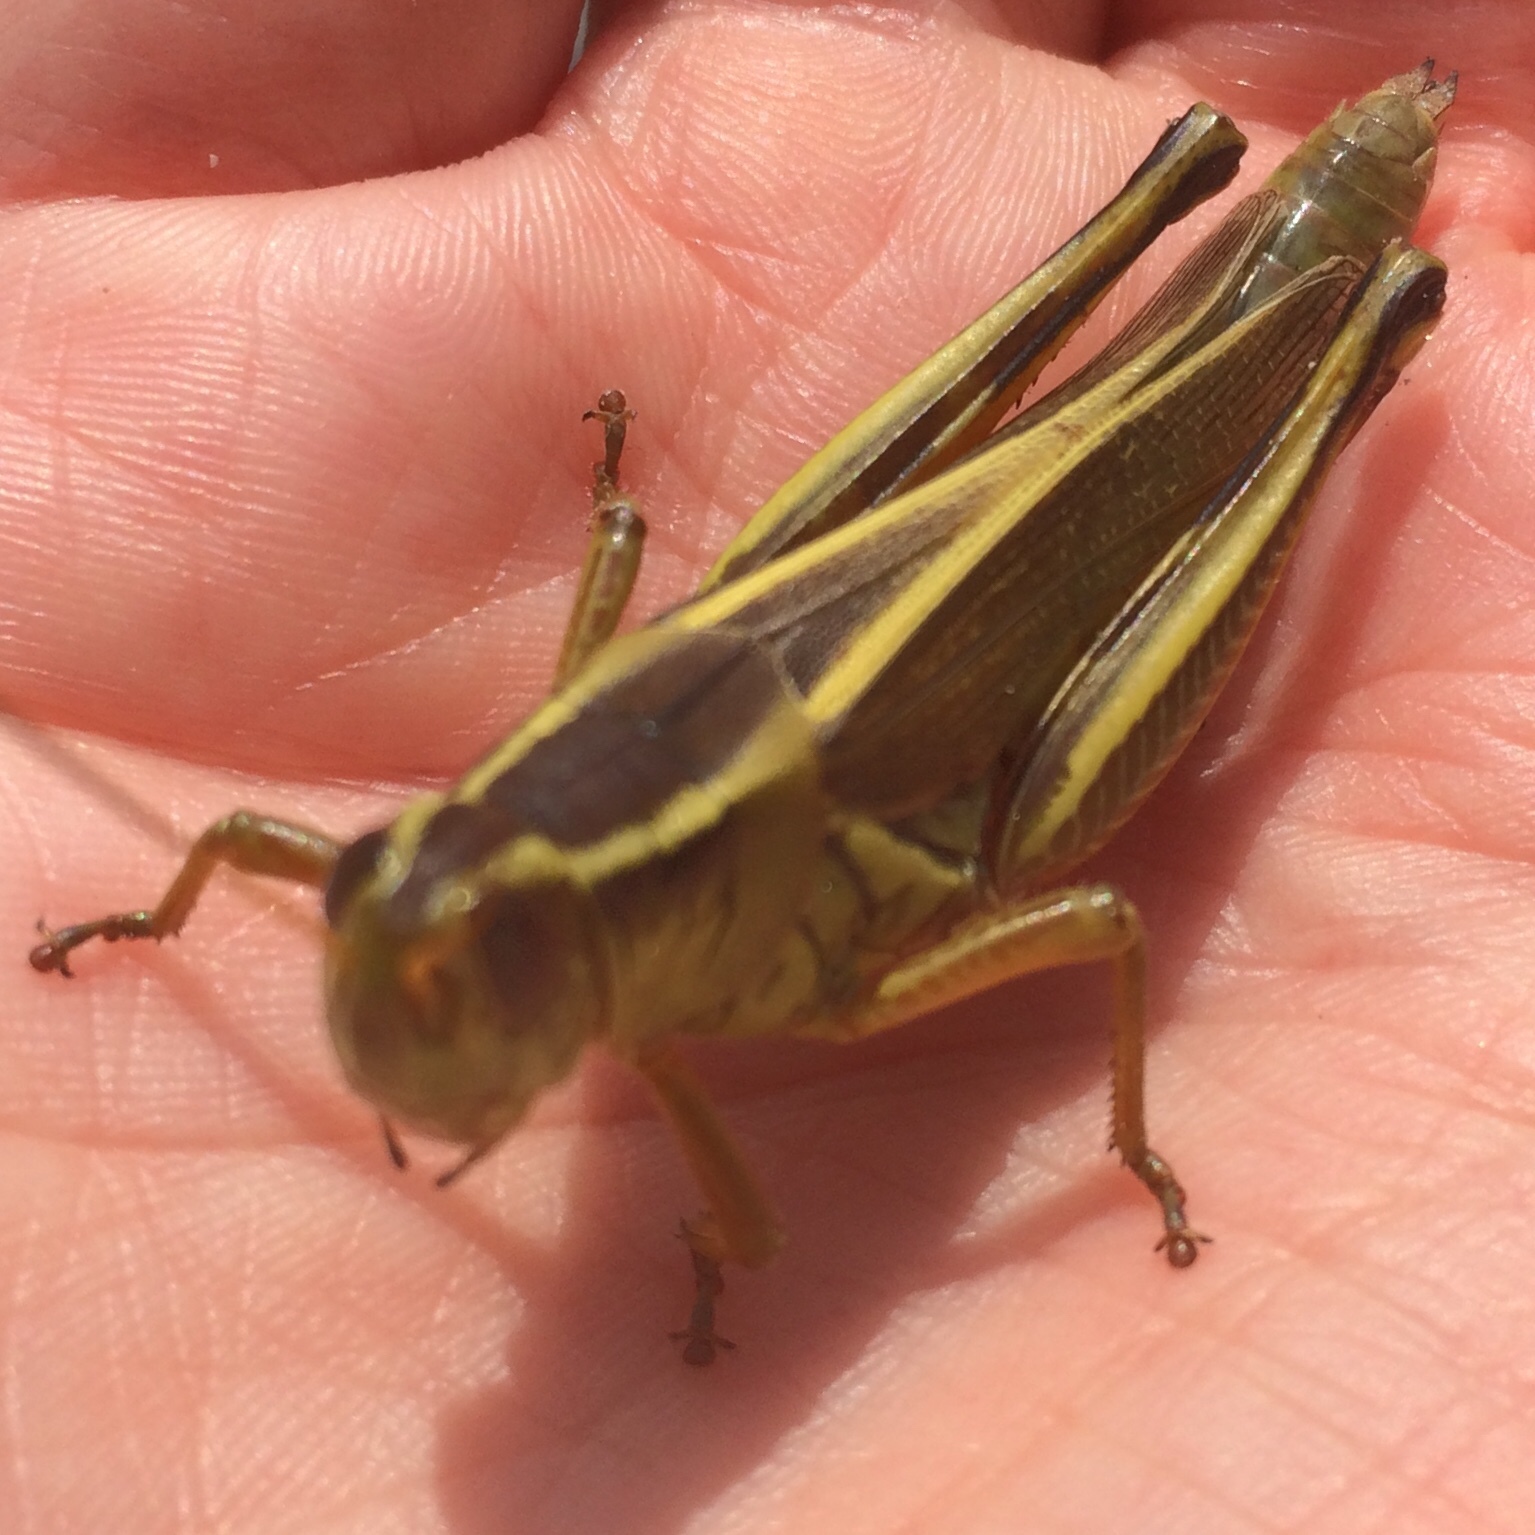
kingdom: Animalia
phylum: Arthropoda
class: Insecta
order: Orthoptera
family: Acrididae
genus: Melanoplus
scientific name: Melanoplus bivittatus
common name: Two-striped grasshopper
